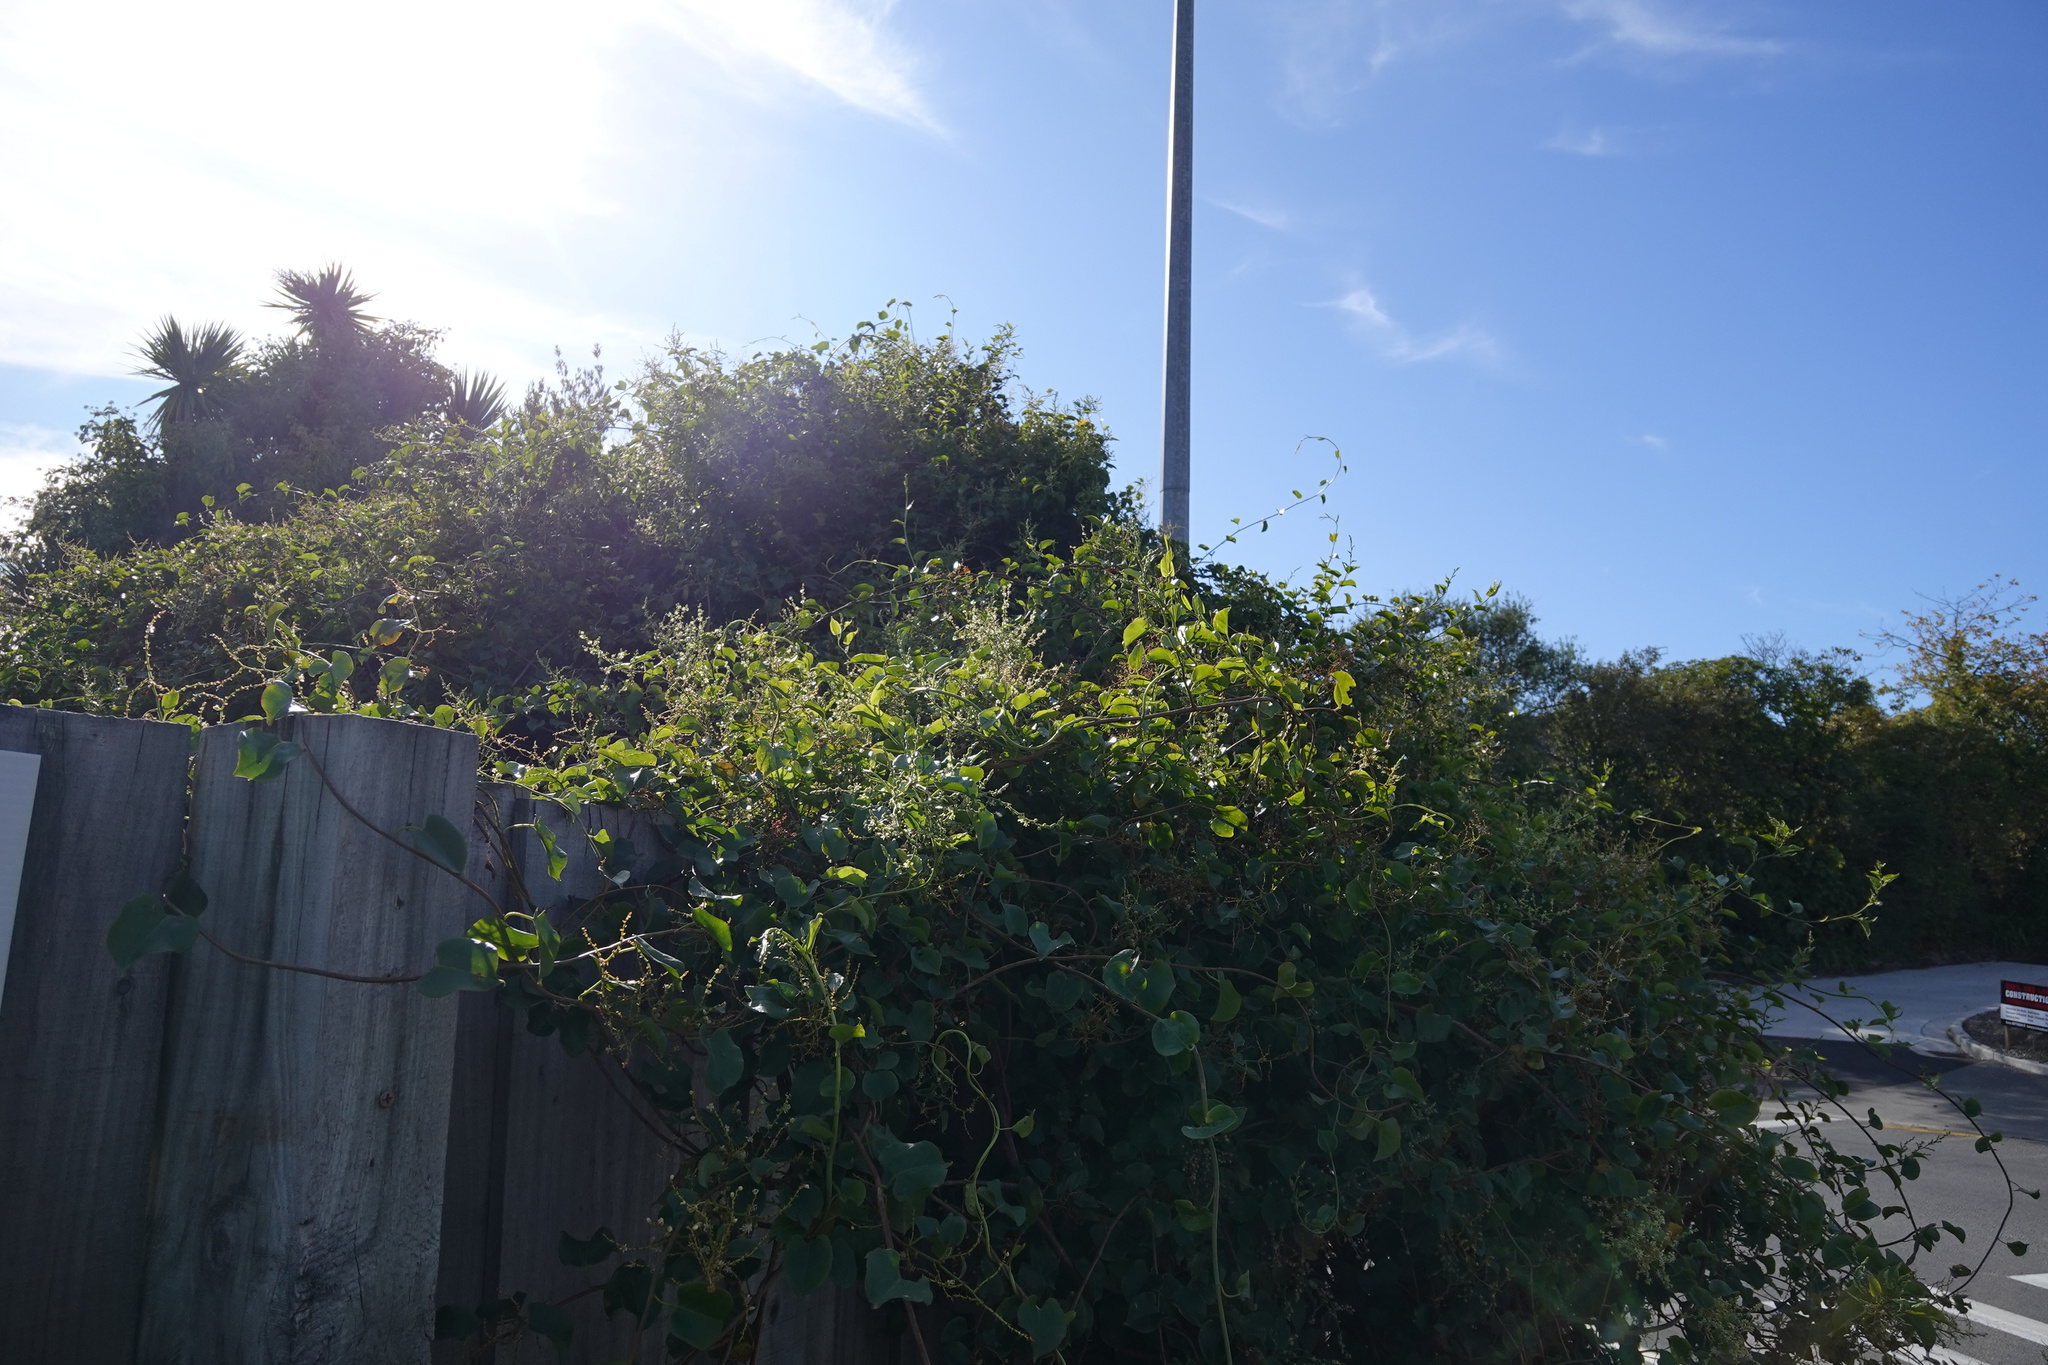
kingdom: Plantae
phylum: Tracheophyta
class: Magnoliopsida
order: Caryophyllales
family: Polygonaceae
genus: Muehlenbeckia
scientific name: Muehlenbeckia australis
